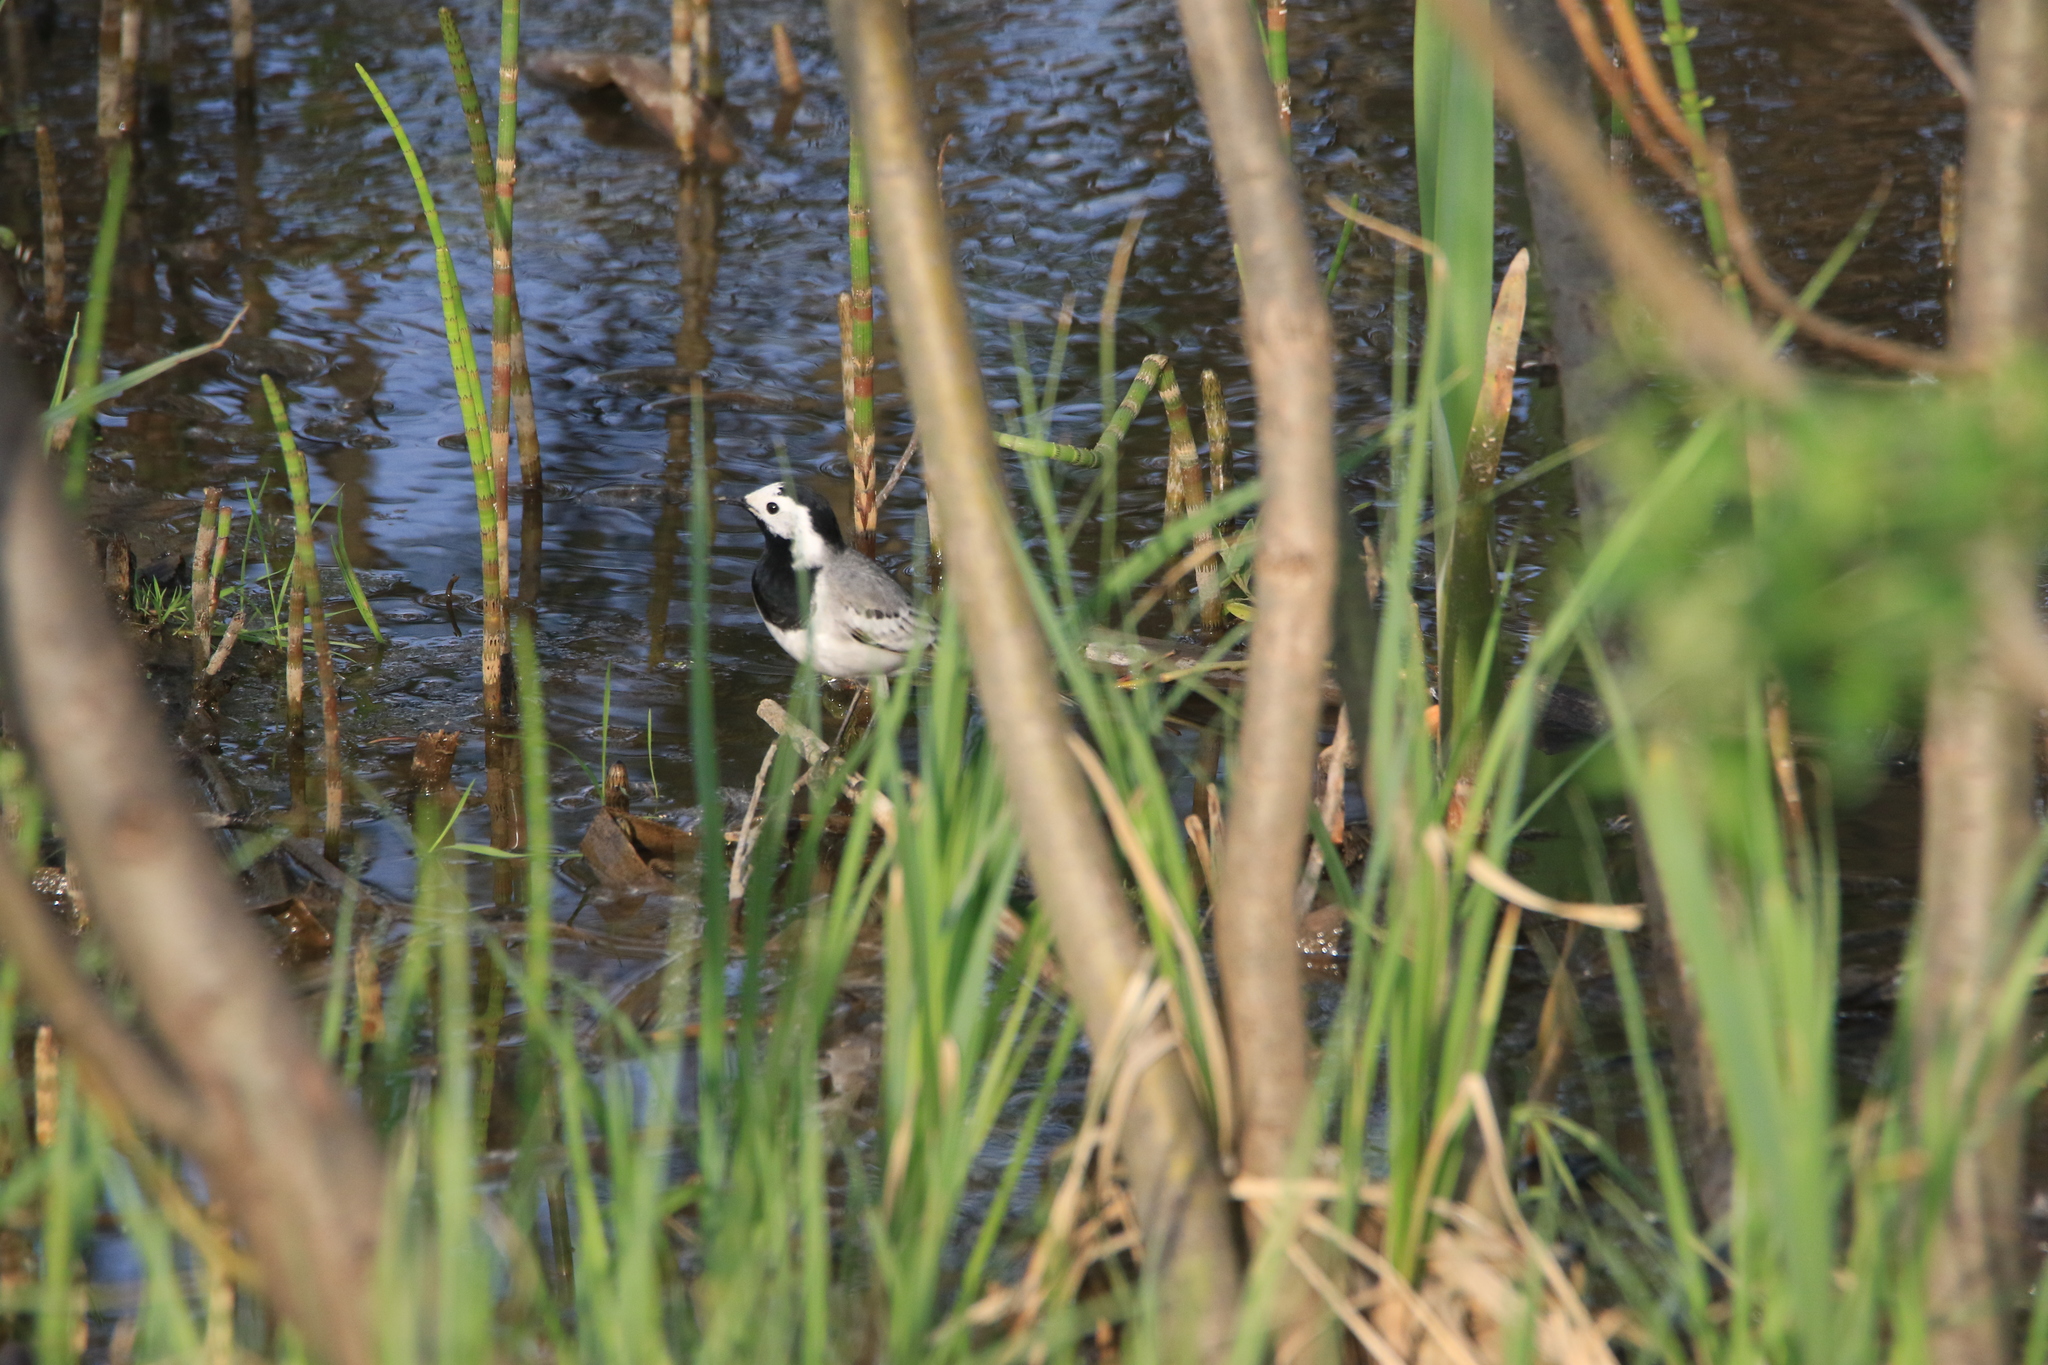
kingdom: Animalia
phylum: Chordata
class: Aves
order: Passeriformes
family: Motacillidae
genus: Motacilla
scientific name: Motacilla alba
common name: White wagtail
